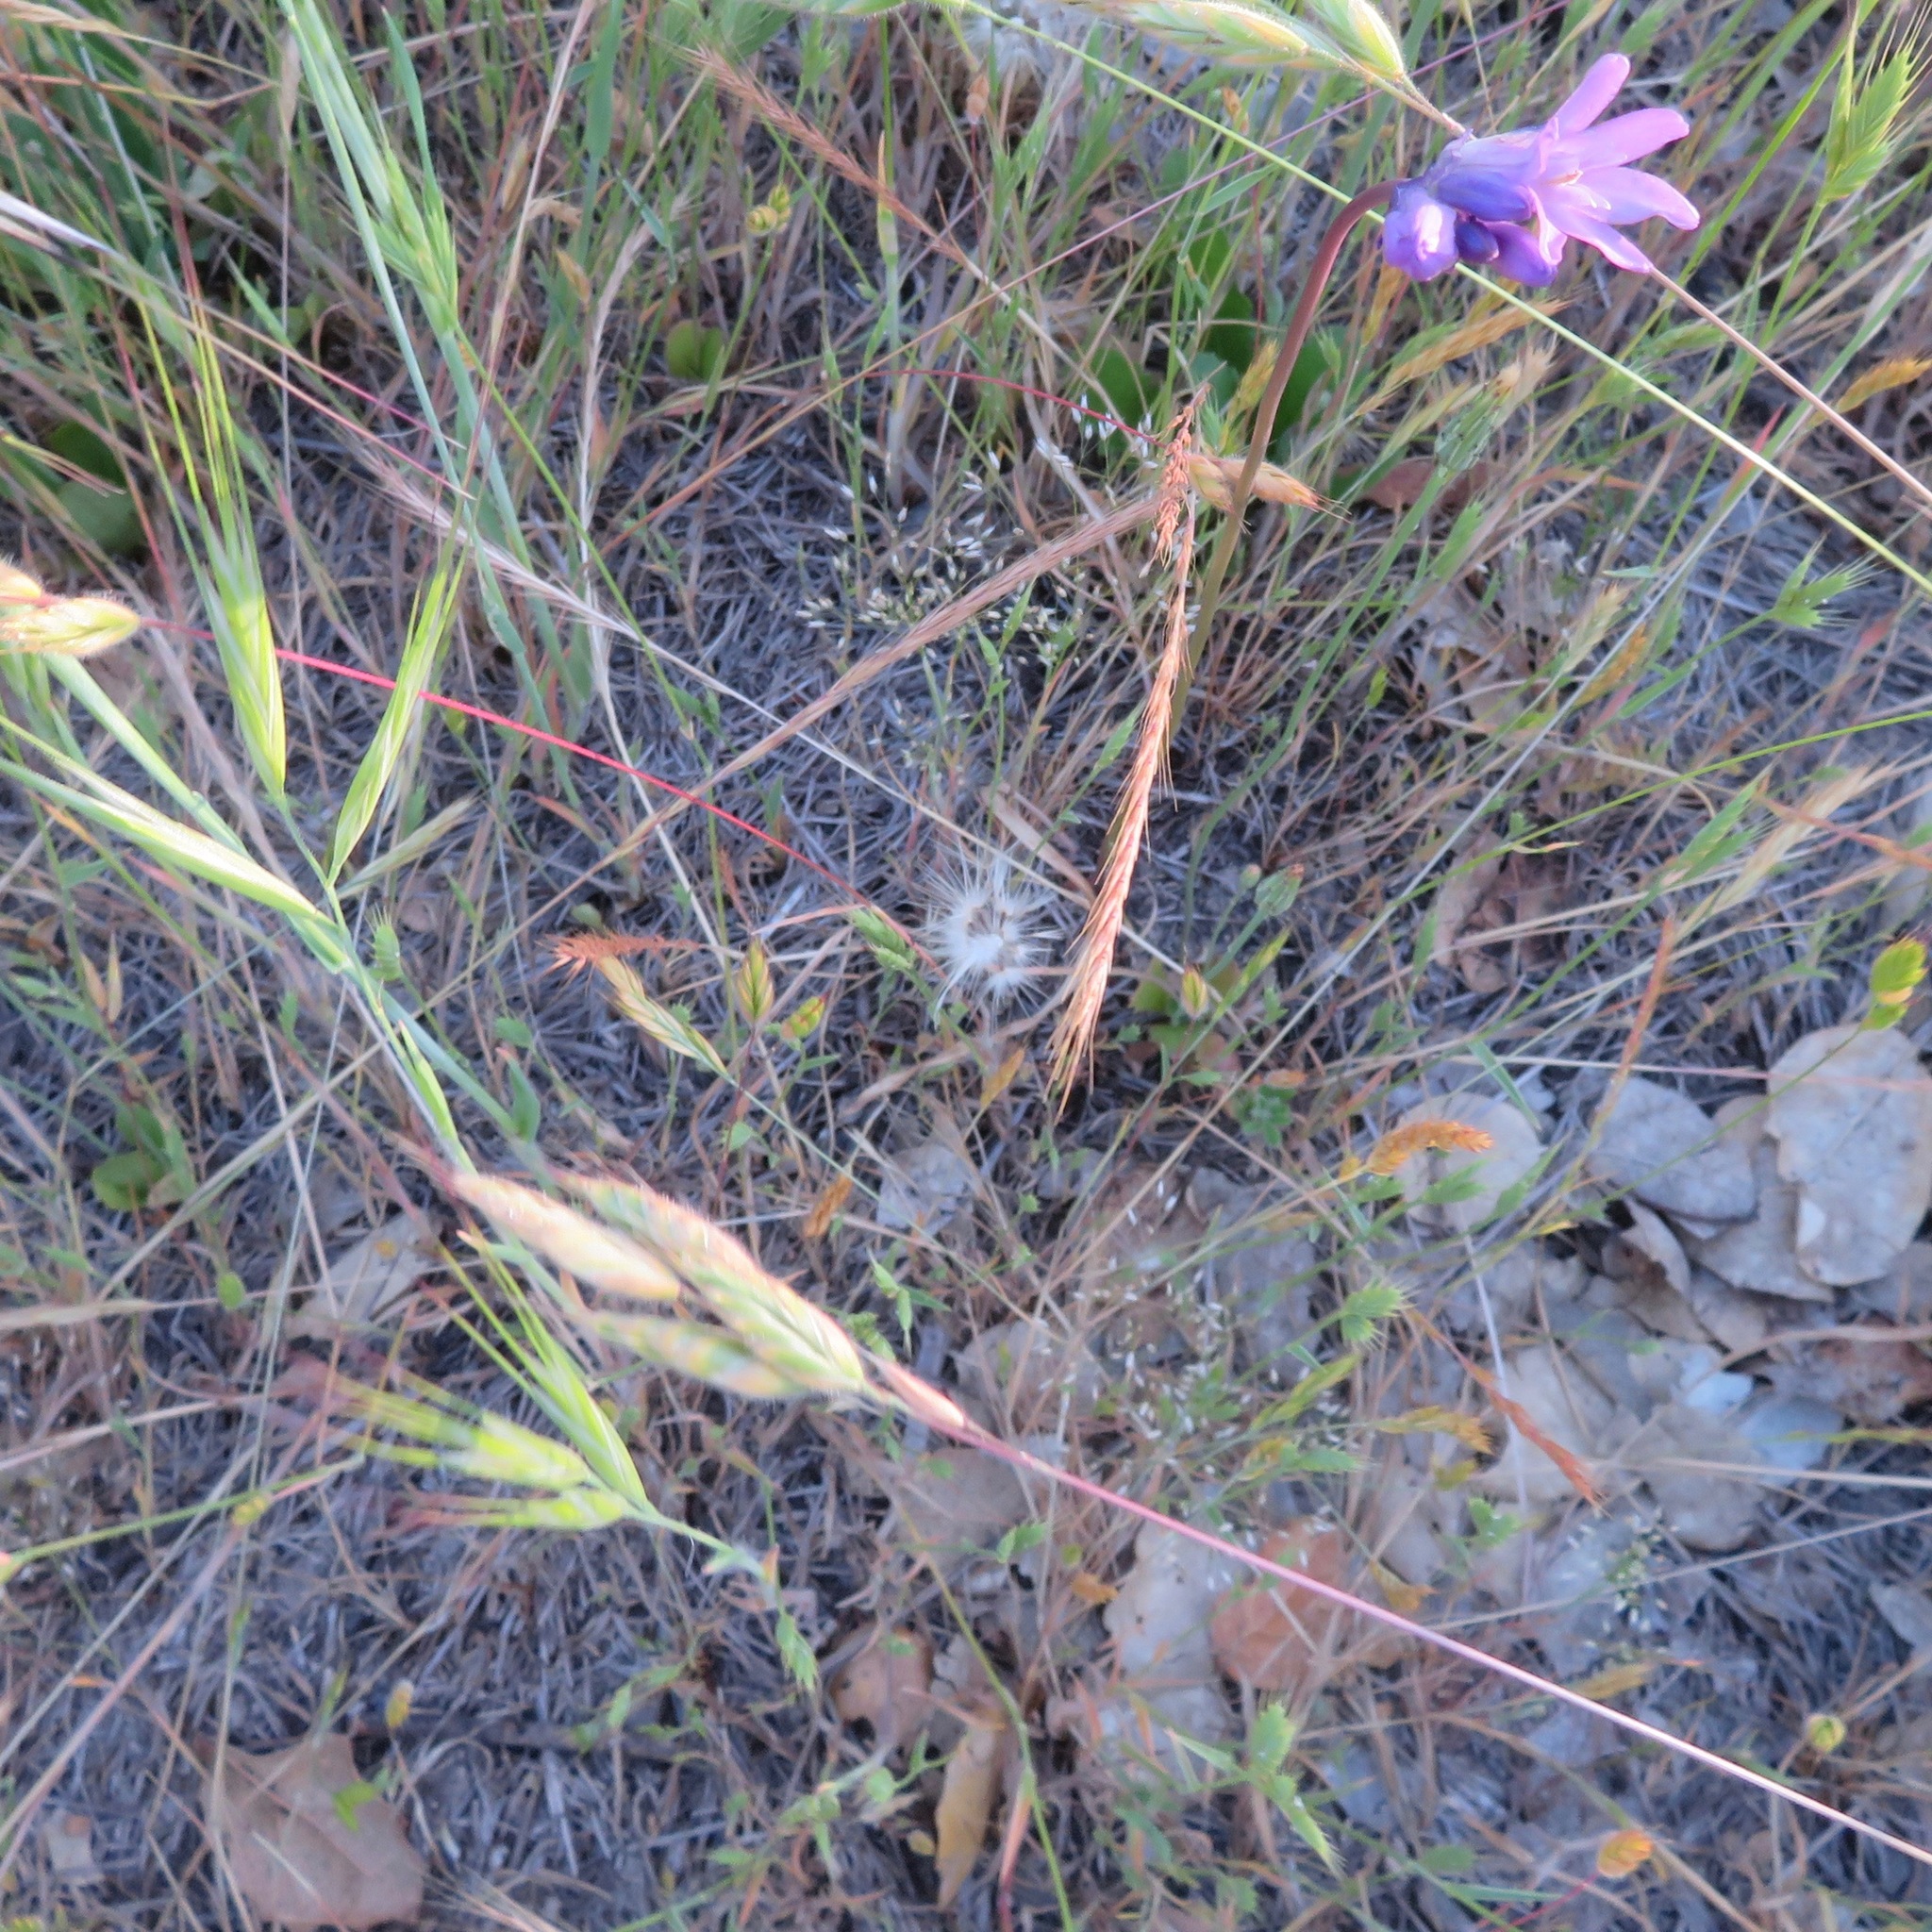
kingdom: Plantae
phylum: Tracheophyta
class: Liliopsida
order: Asparagales
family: Asparagaceae
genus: Dichelostemma
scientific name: Dichelostemma congestum
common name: Fork-tooth ookow
